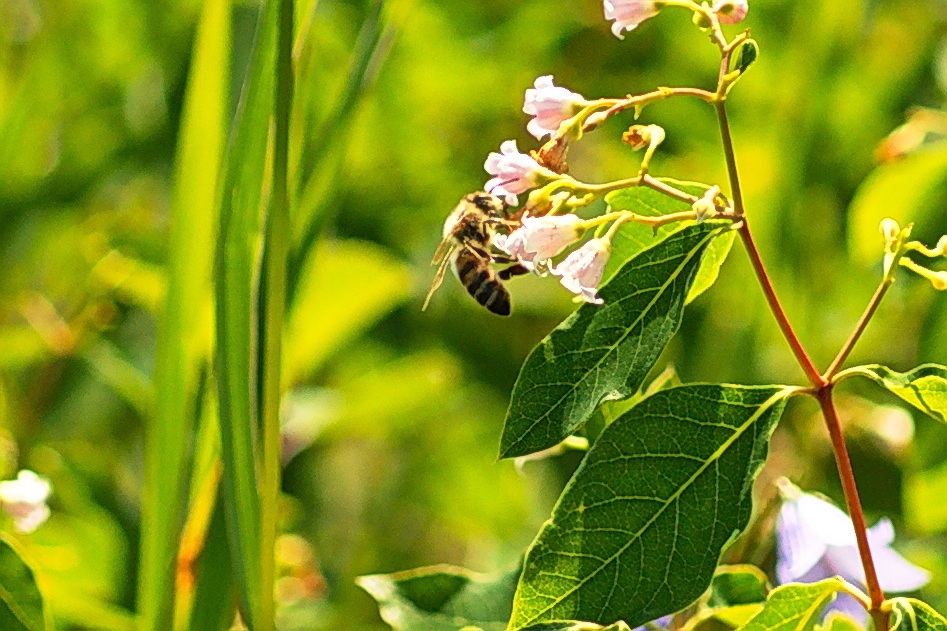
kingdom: Animalia
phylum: Arthropoda
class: Insecta
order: Hymenoptera
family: Apidae
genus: Apis
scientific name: Apis mellifera
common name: Honey bee
